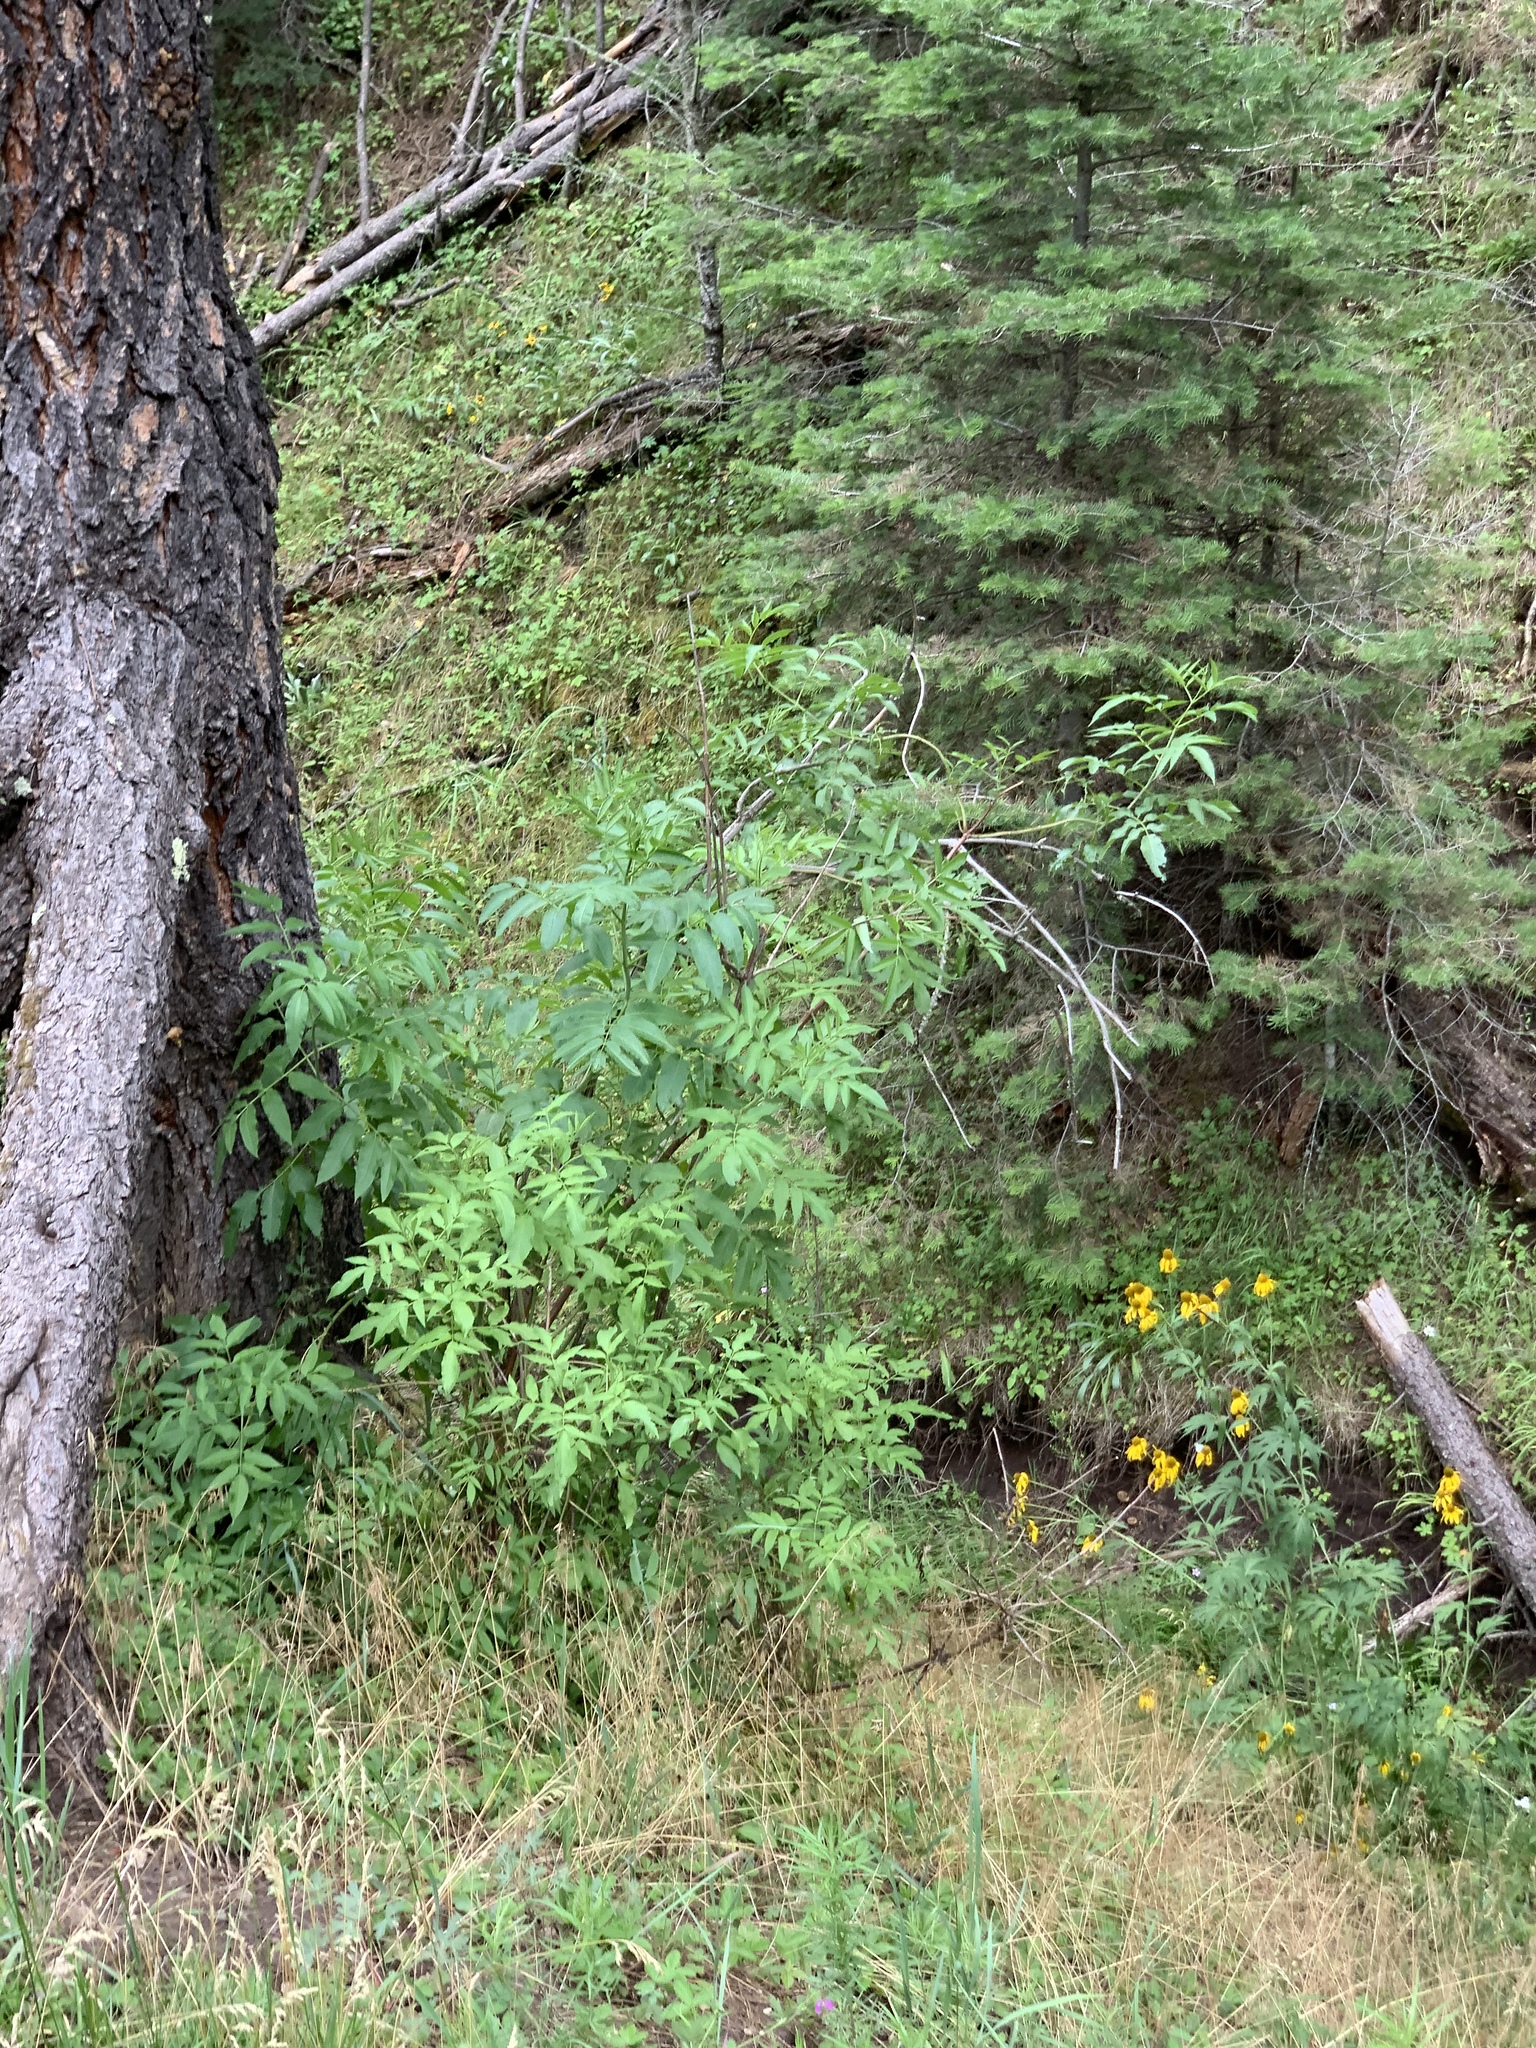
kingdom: Plantae
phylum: Tracheophyta
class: Magnoliopsida
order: Dipsacales
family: Viburnaceae
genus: Sambucus
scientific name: Sambucus cerulea
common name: Blue elder
